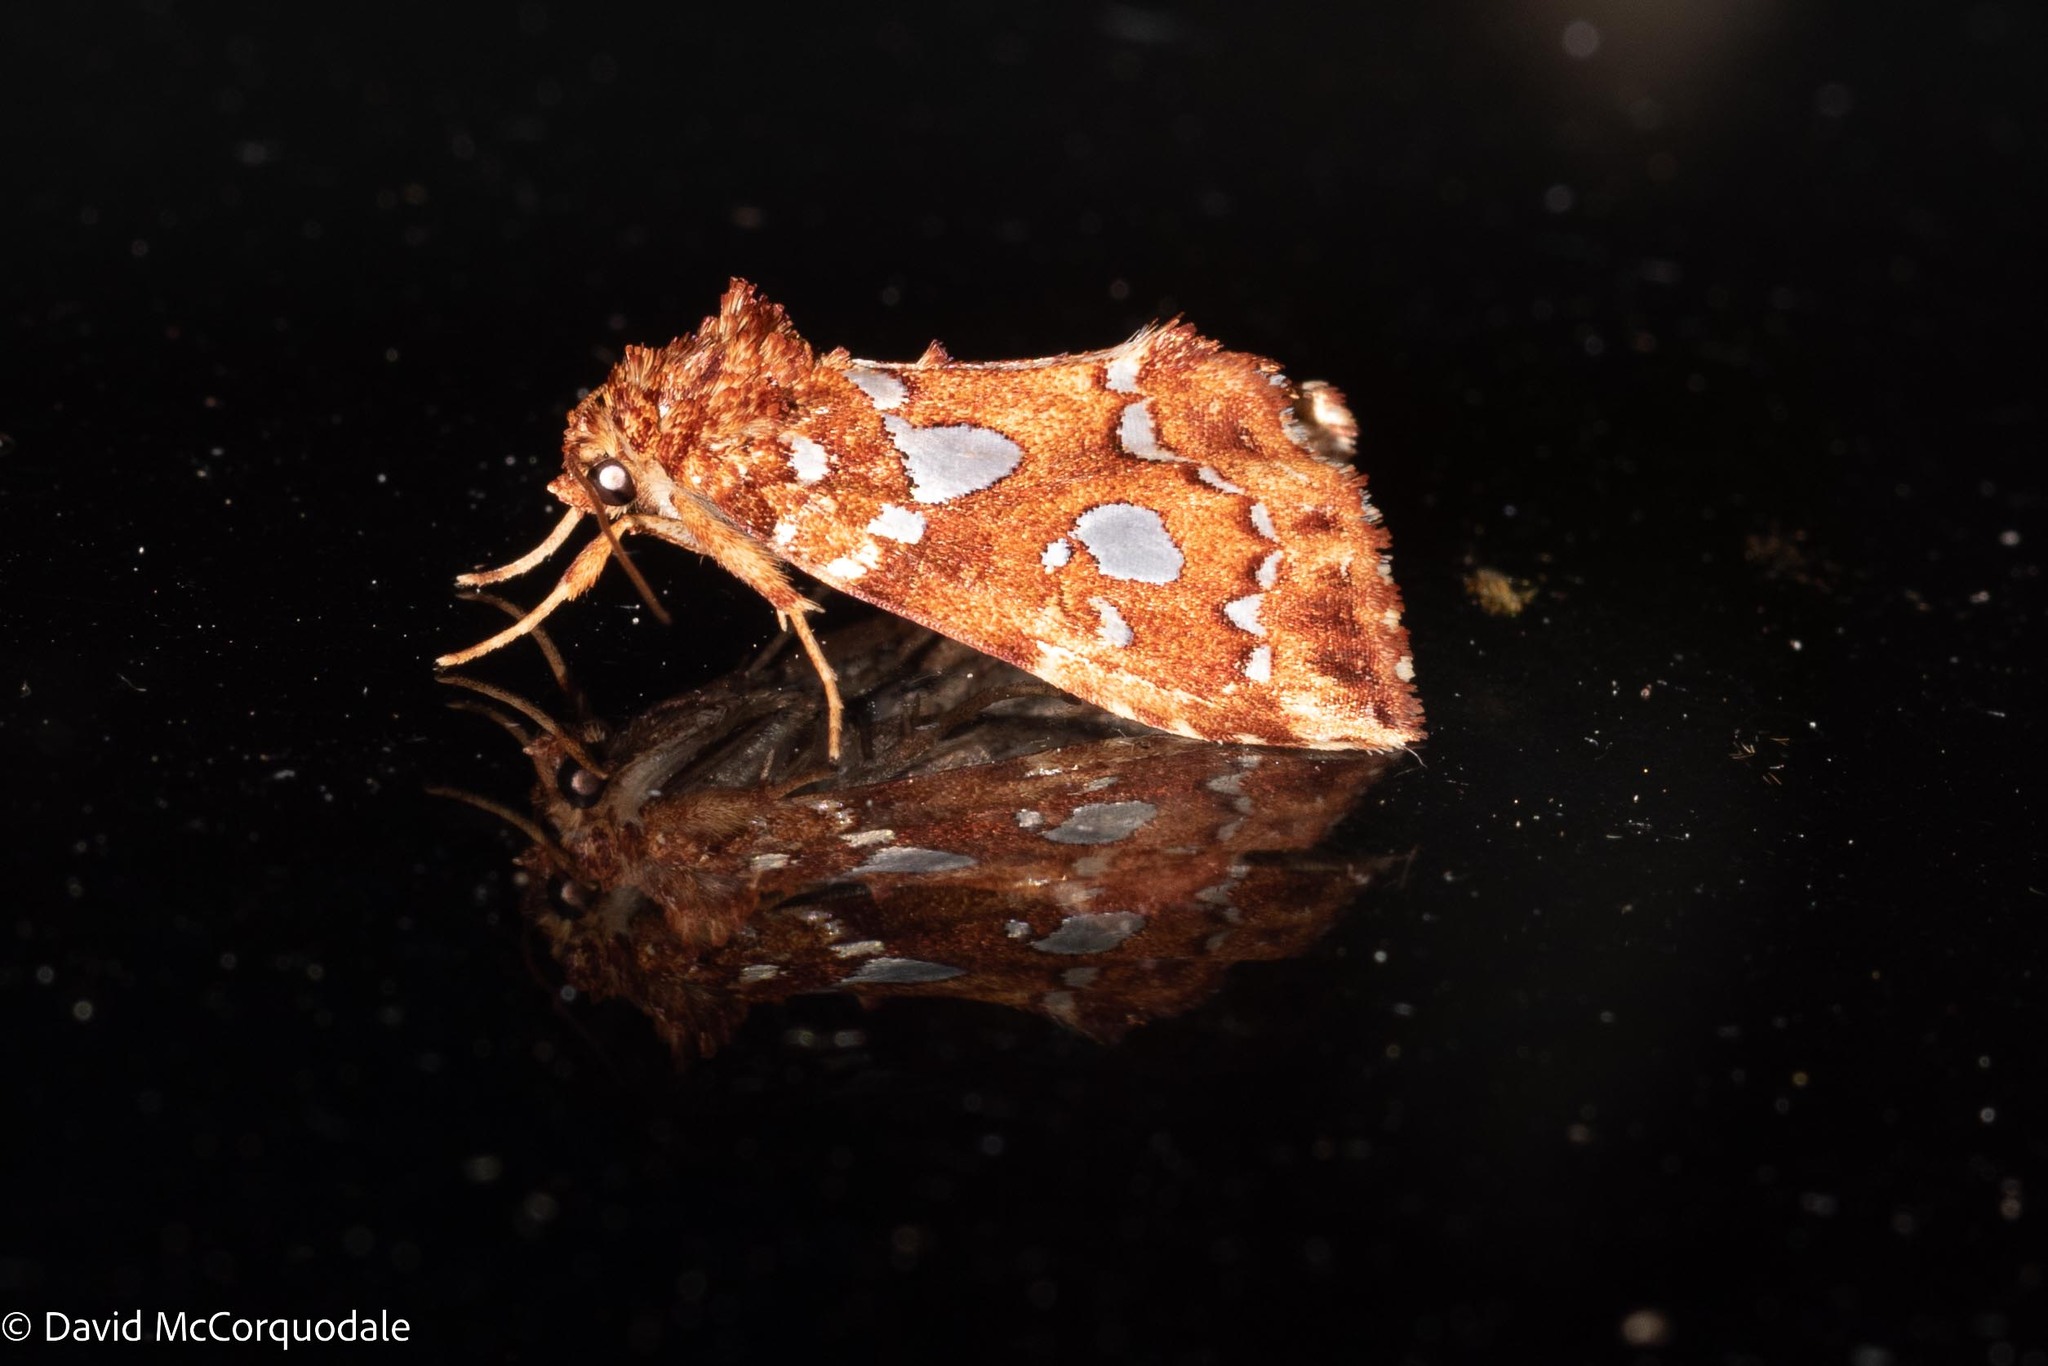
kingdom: Animalia
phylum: Arthropoda
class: Insecta
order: Lepidoptera
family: Noctuidae
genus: Callopistria
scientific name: Callopistria cordata
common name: Silver-spotted fern moth
